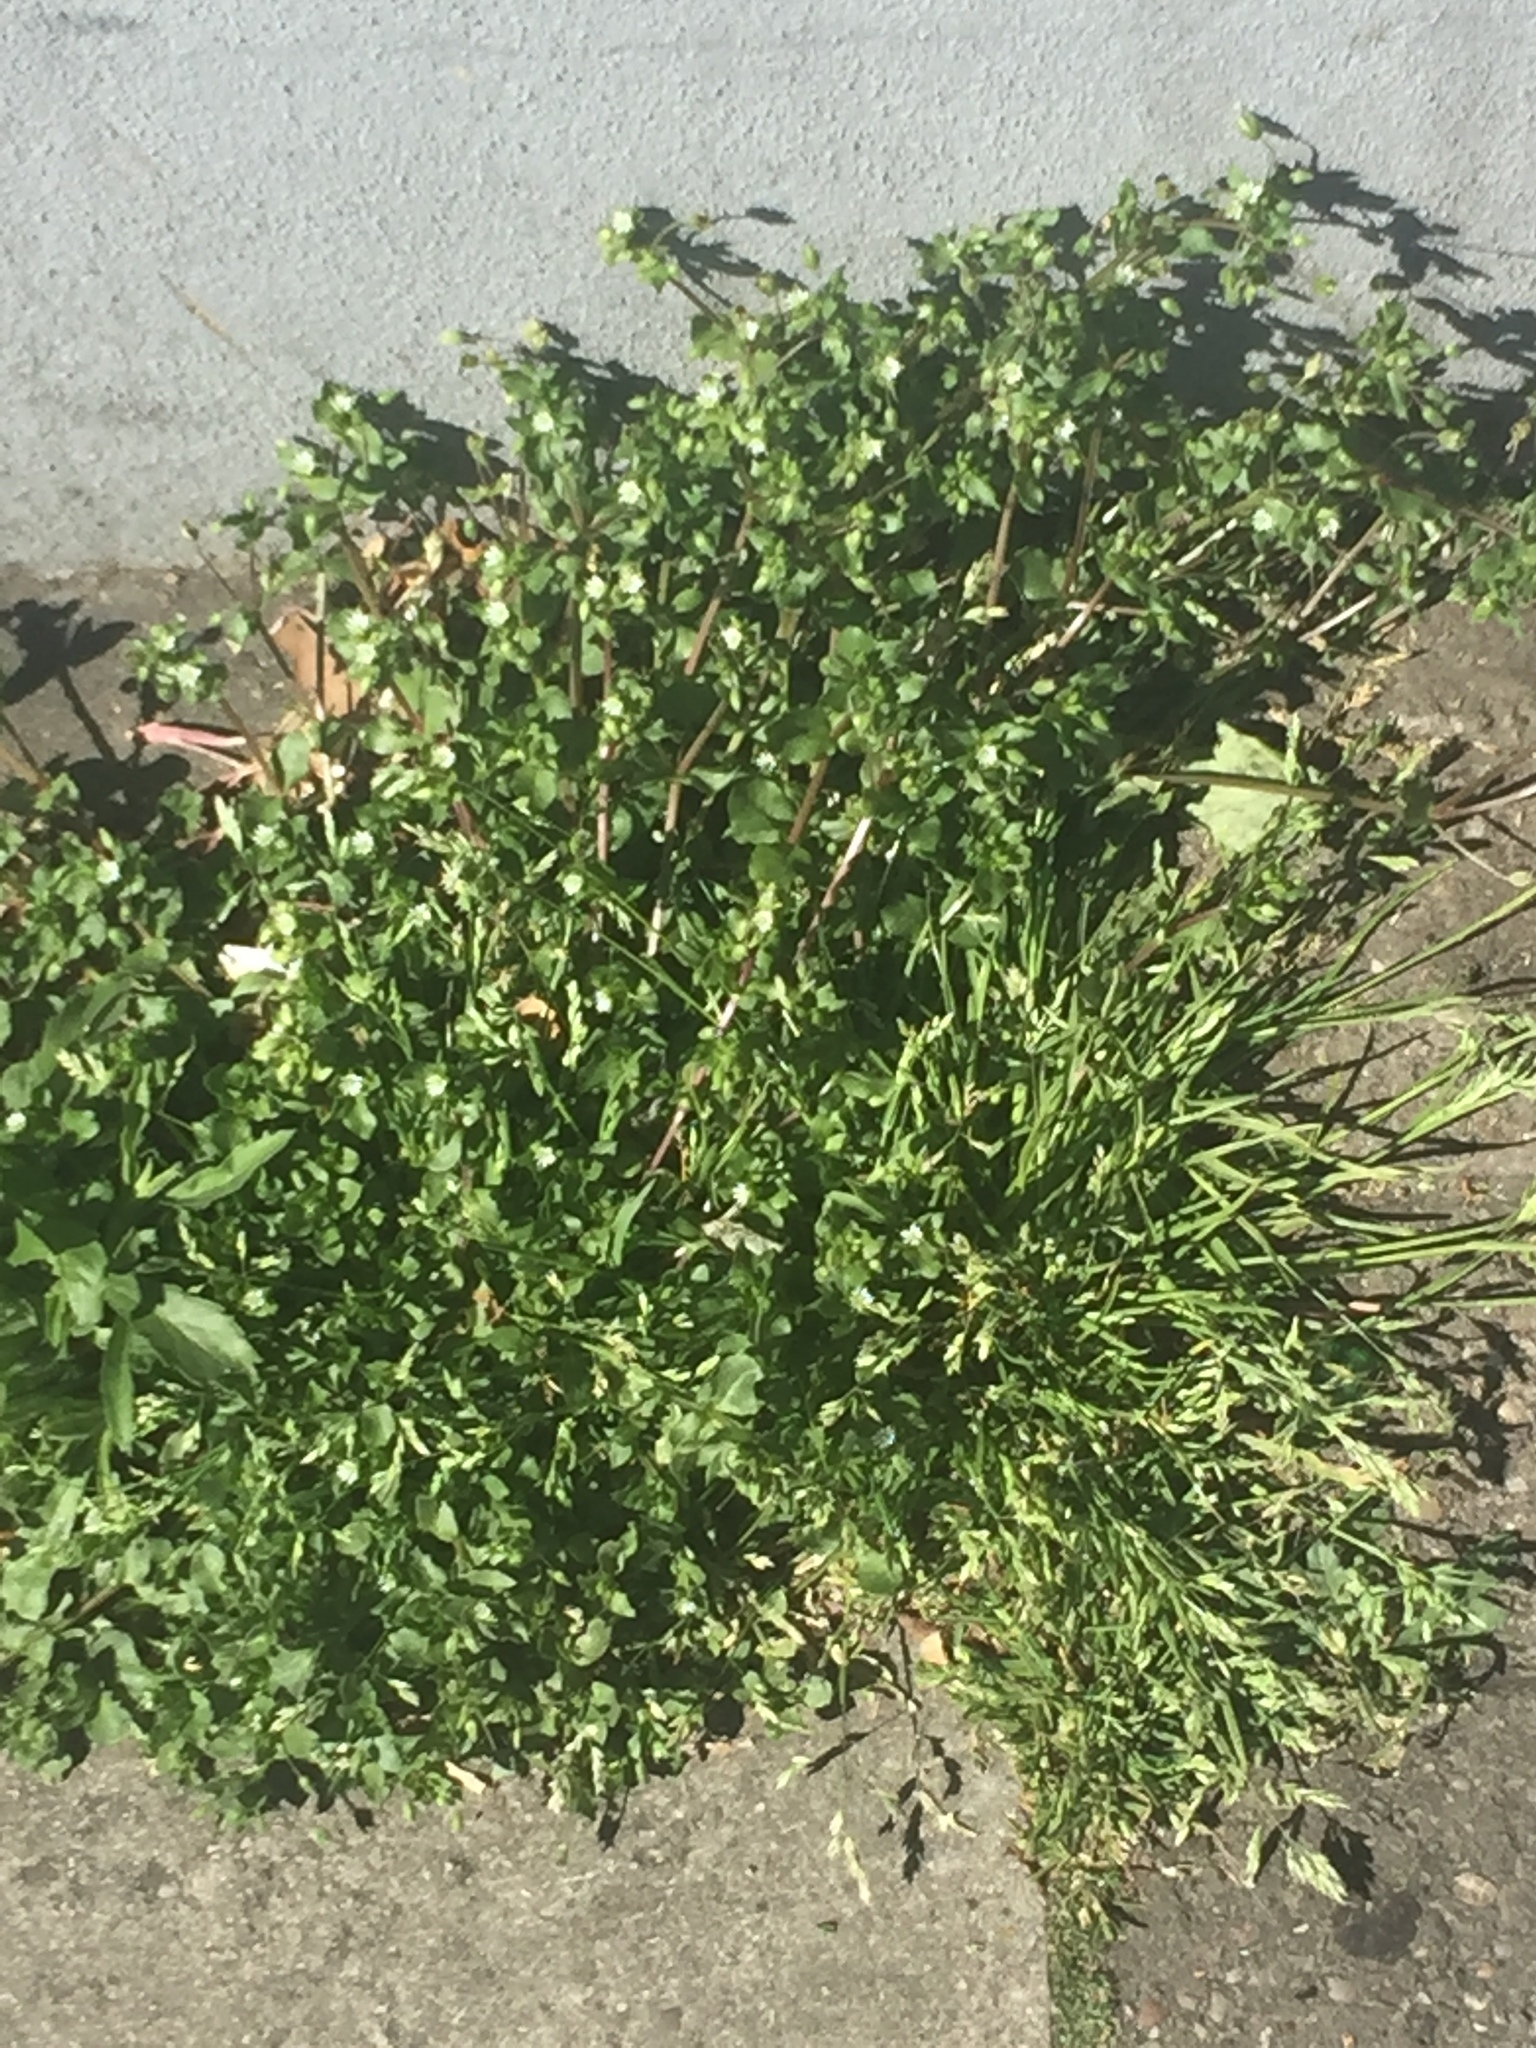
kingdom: Plantae
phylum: Tracheophyta
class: Magnoliopsida
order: Caryophyllales
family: Caryophyllaceae
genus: Stellaria
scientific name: Stellaria media
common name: Common chickweed
